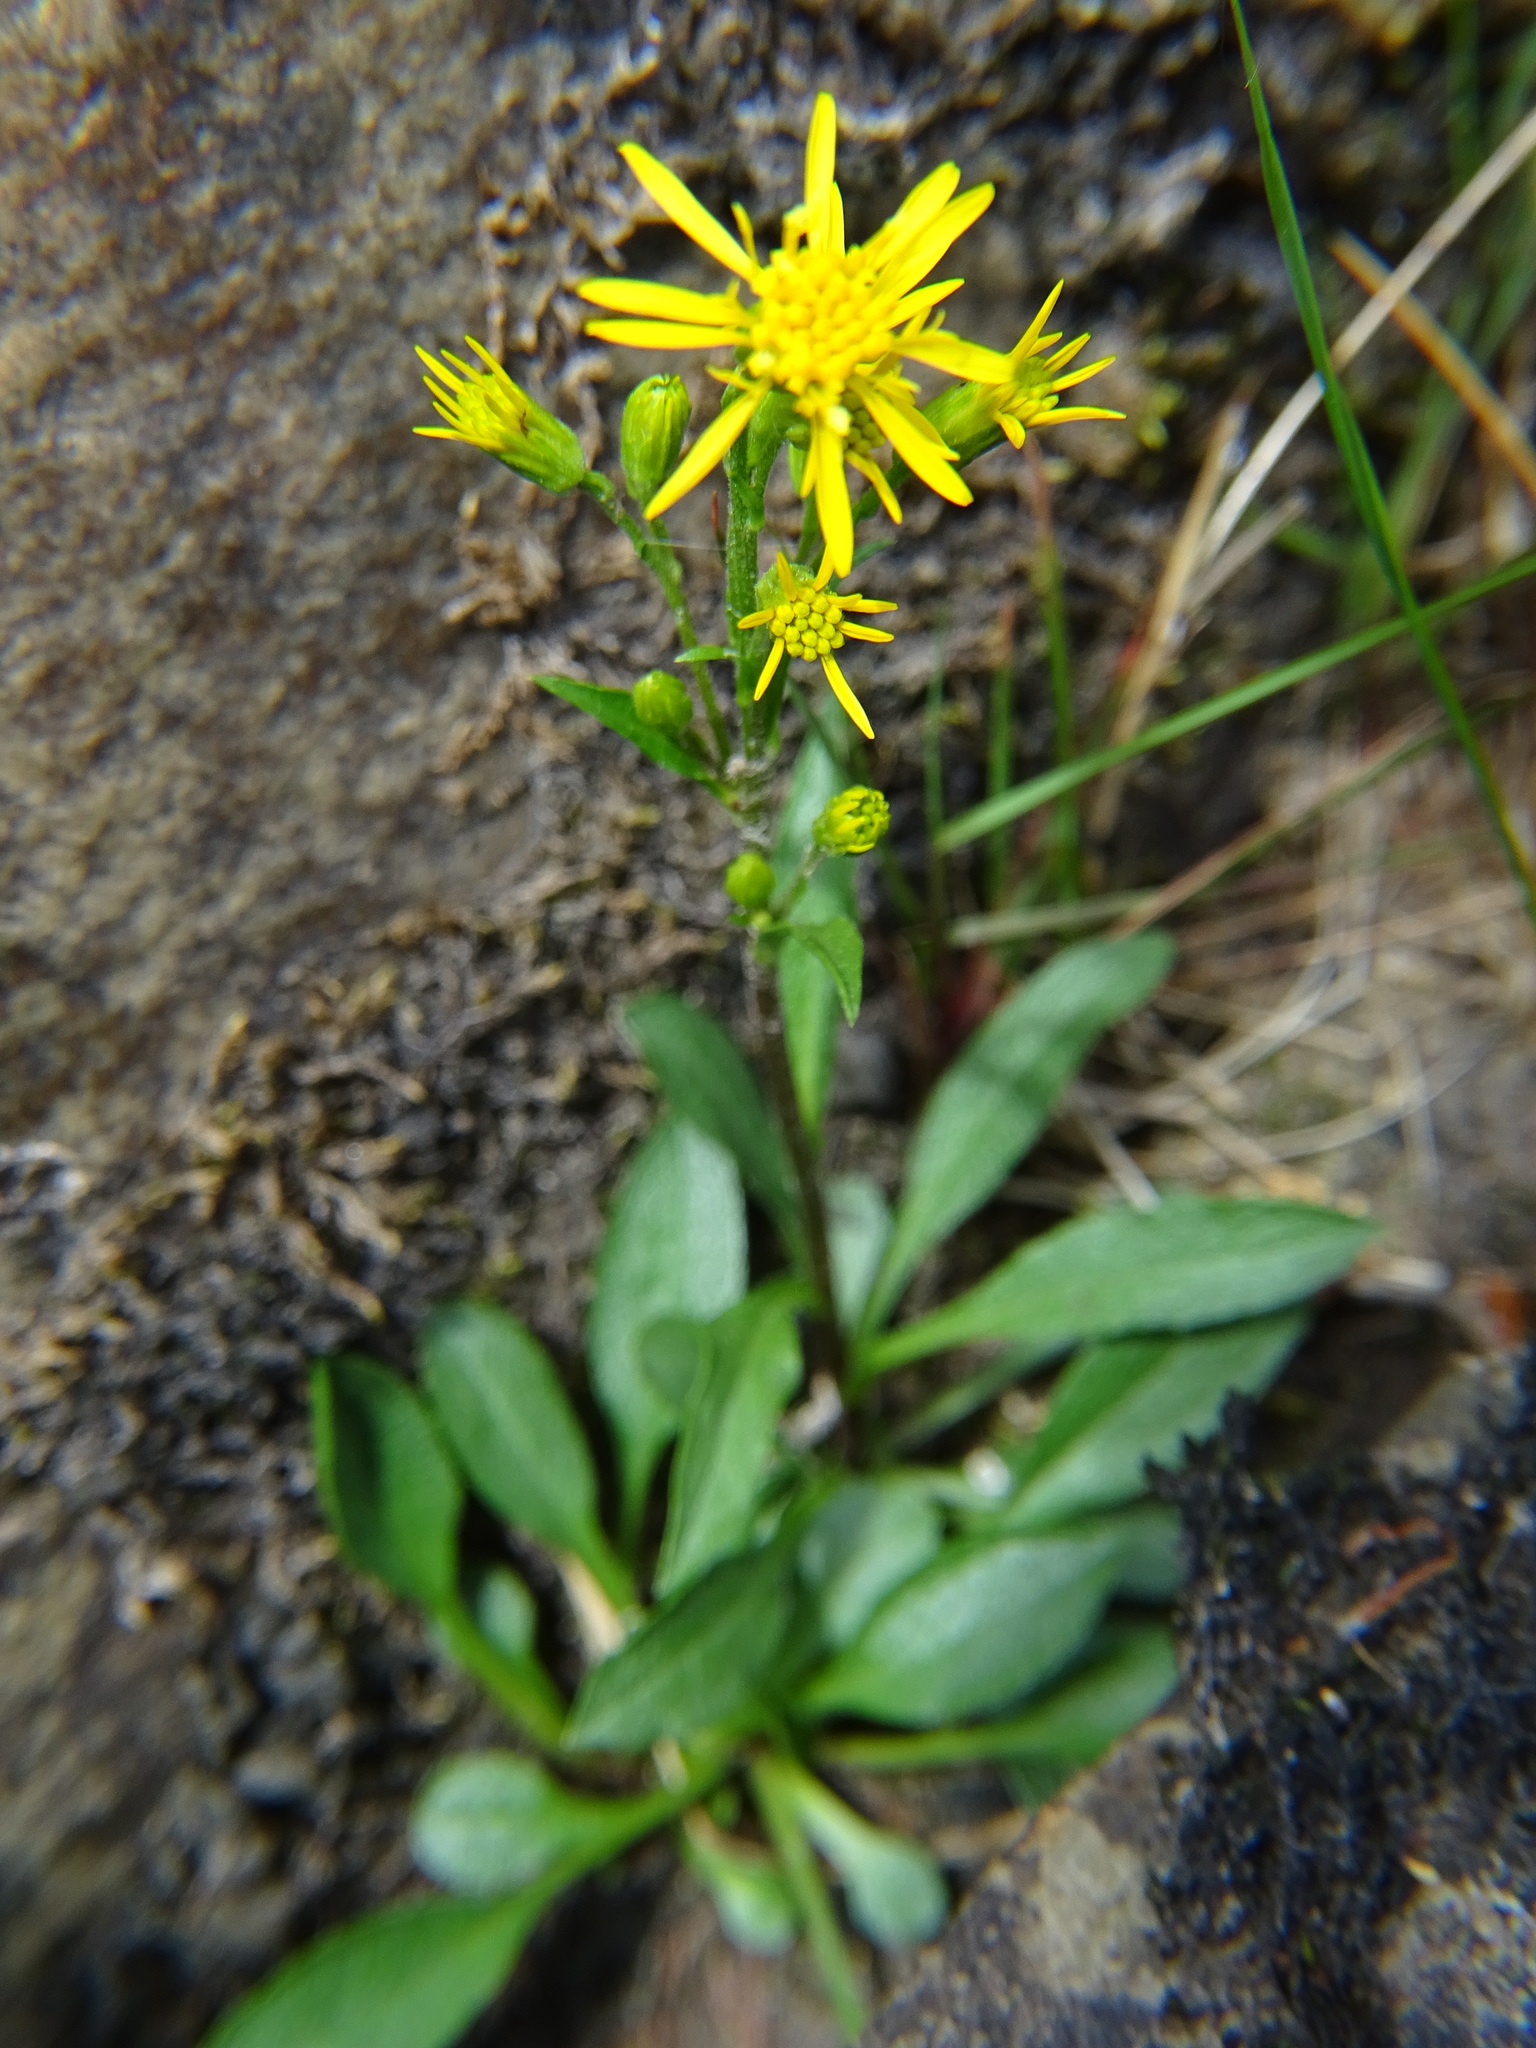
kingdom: Plantae
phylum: Tracheophyta
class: Magnoliopsida
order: Asterales
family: Asteraceae
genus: Solidago
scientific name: Solidago virgaurea
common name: Goldenrod
